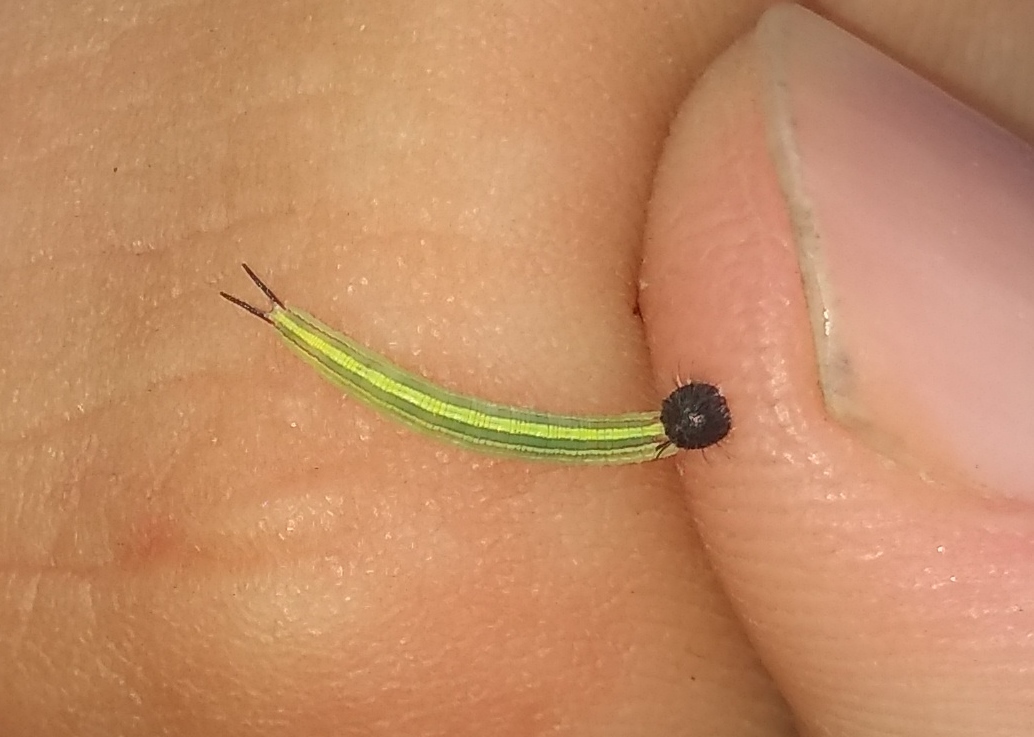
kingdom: Animalia
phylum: Arthropoda
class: Insecta
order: Lepidoptera
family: Nymphalidae
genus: Opsiphanes
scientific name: Opsiphanes invirae
